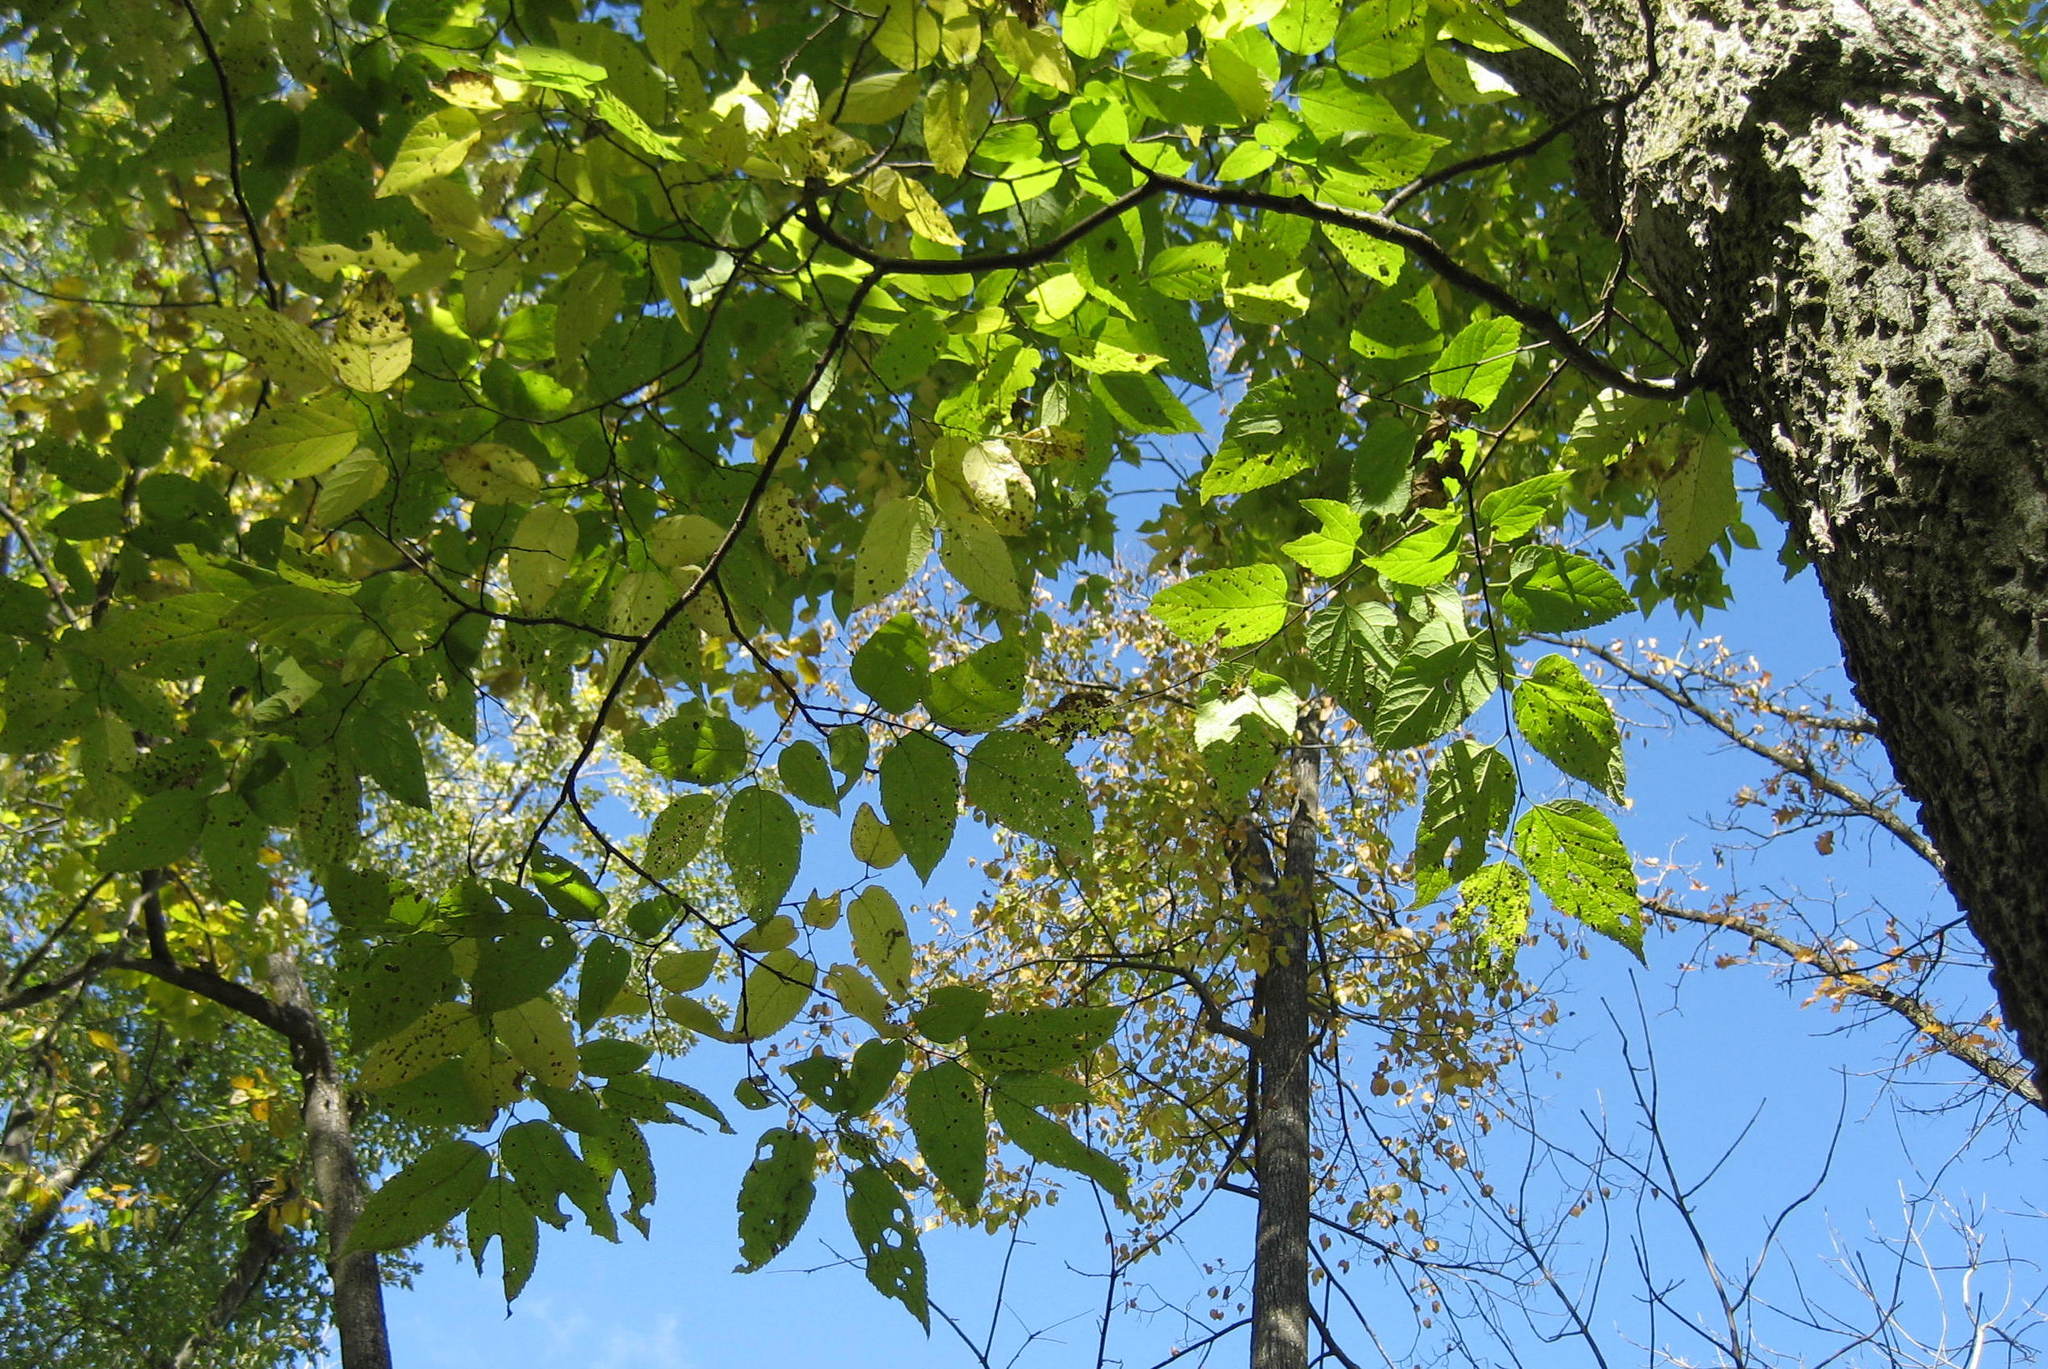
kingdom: Plantae
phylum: Tracheophyta
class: Magnoliopsida
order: Rosales
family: Cannabaceae
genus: Celtis
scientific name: Celtis occidentalis
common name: Common hackberry
